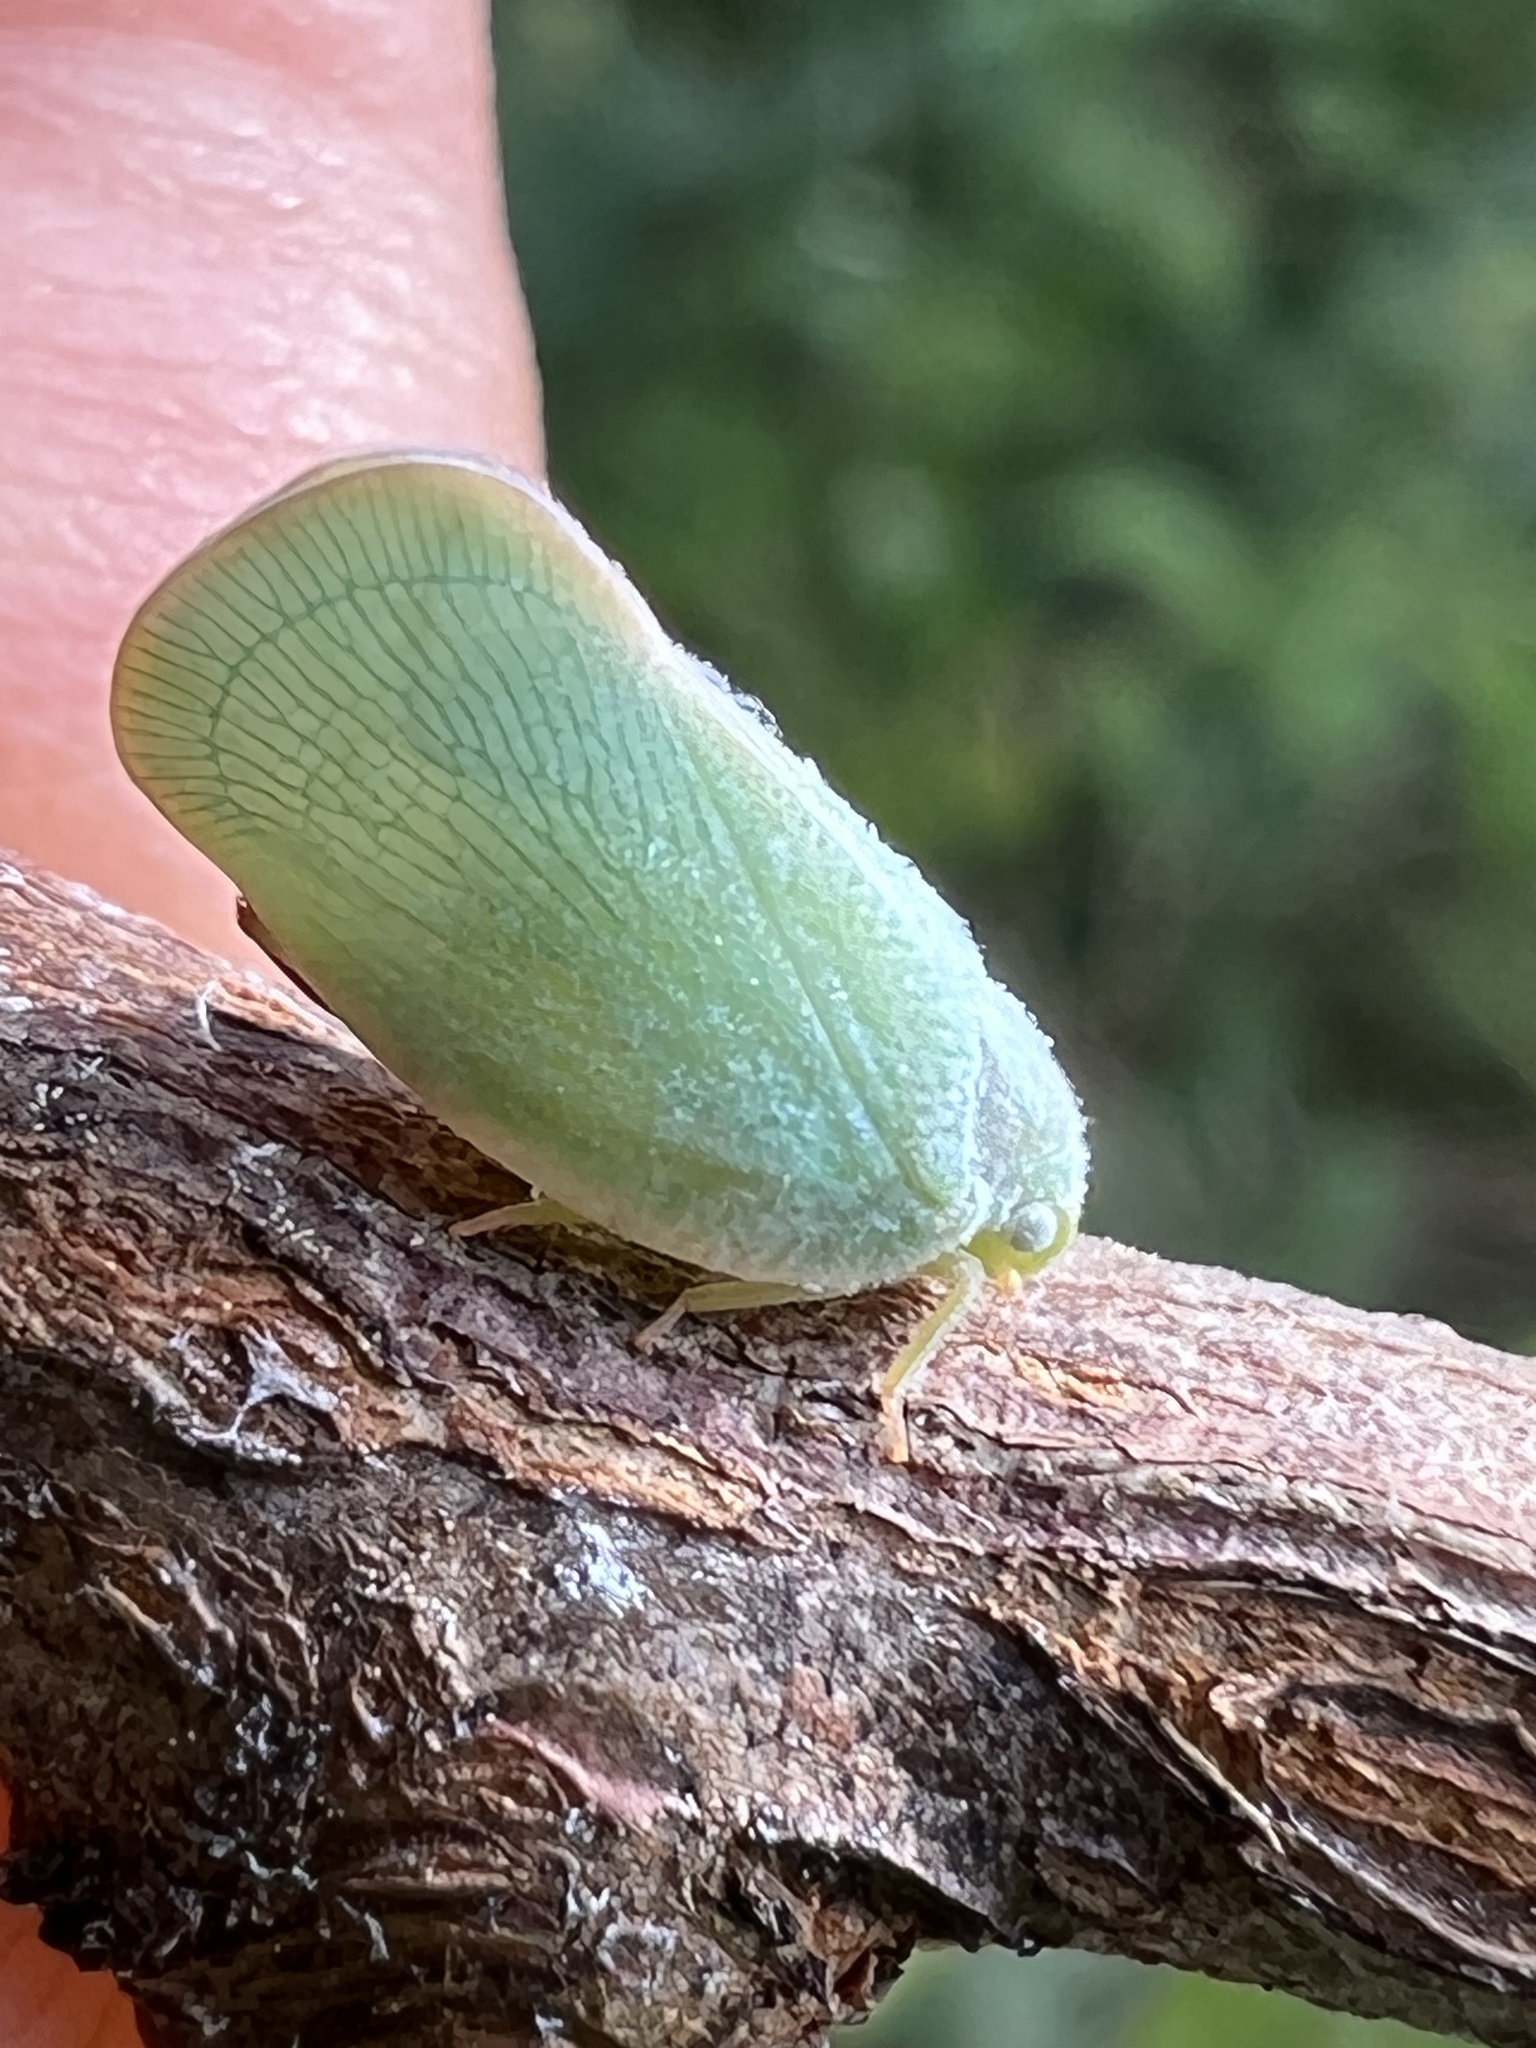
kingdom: Animalia
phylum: Arthropoda
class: Insecta
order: Hemiptera
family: Flatidae
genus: Ormenoides
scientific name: Ormenoides venusta
